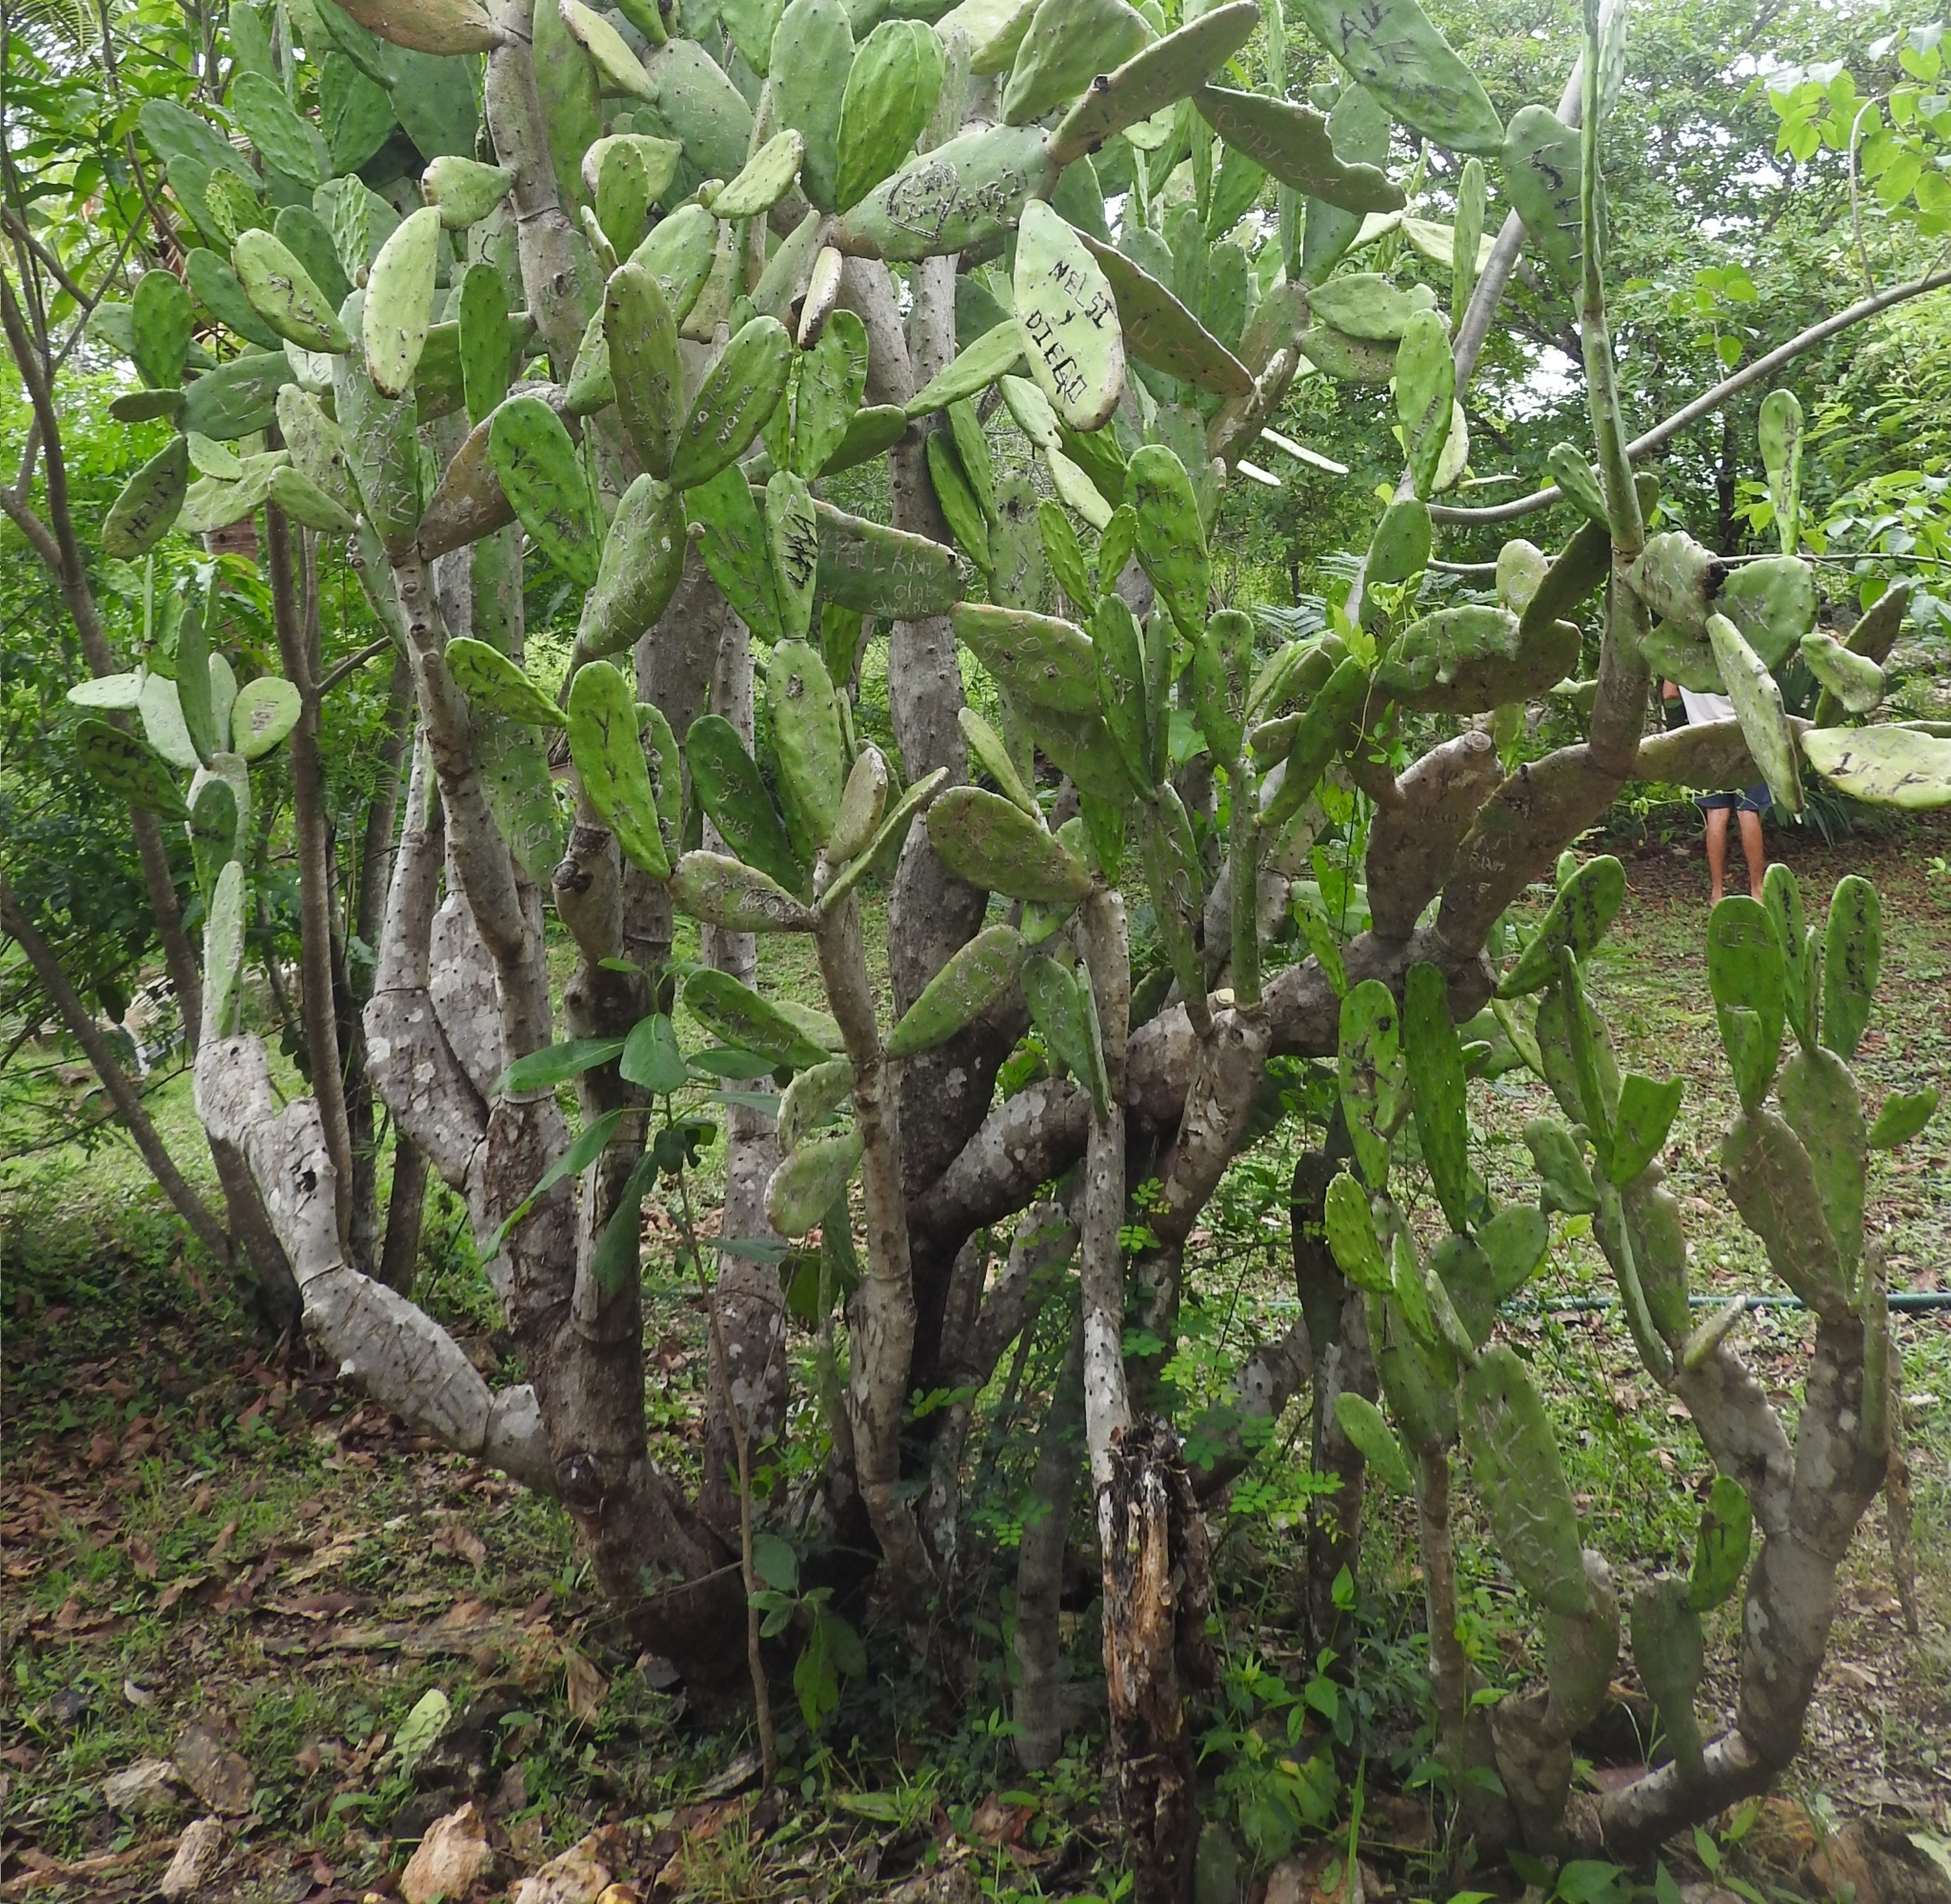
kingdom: Plantae
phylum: Tracheophyta
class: Magnoliopsida
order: Caryophyllales
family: Cactaceae
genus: Opuntia
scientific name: Opuntia cochenillifera
